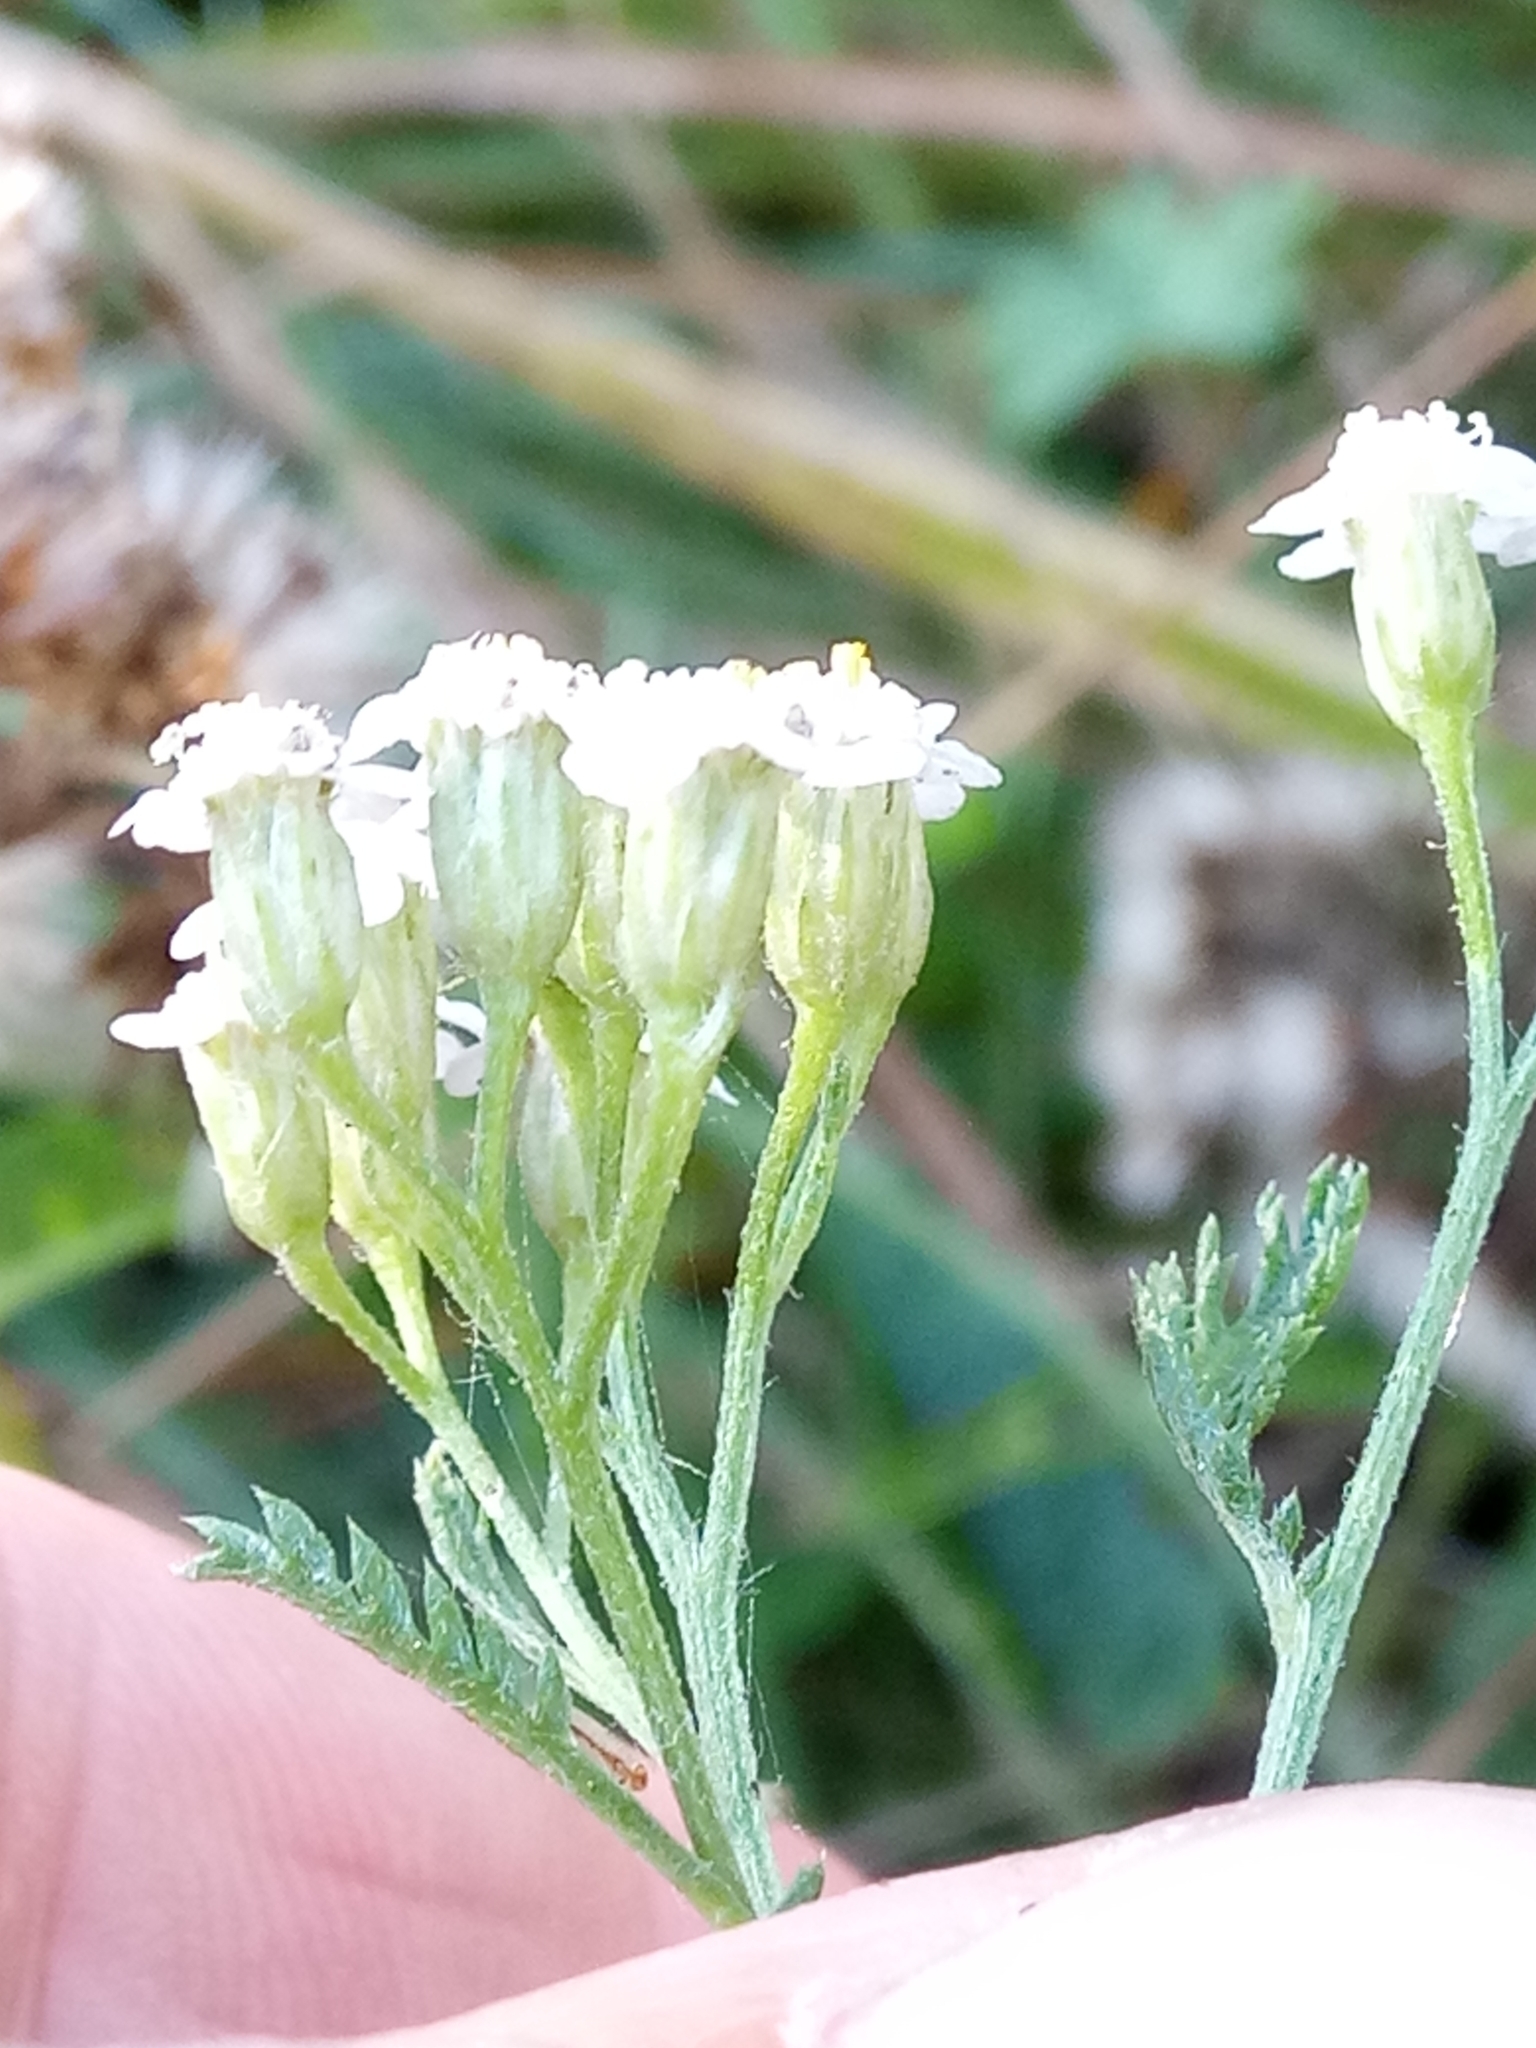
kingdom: Plantae
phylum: Tracheophyta
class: Magnoliopsida
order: Asterales
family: Asteraceae
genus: Achillea
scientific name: Achillea millefolium
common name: Yarrow
